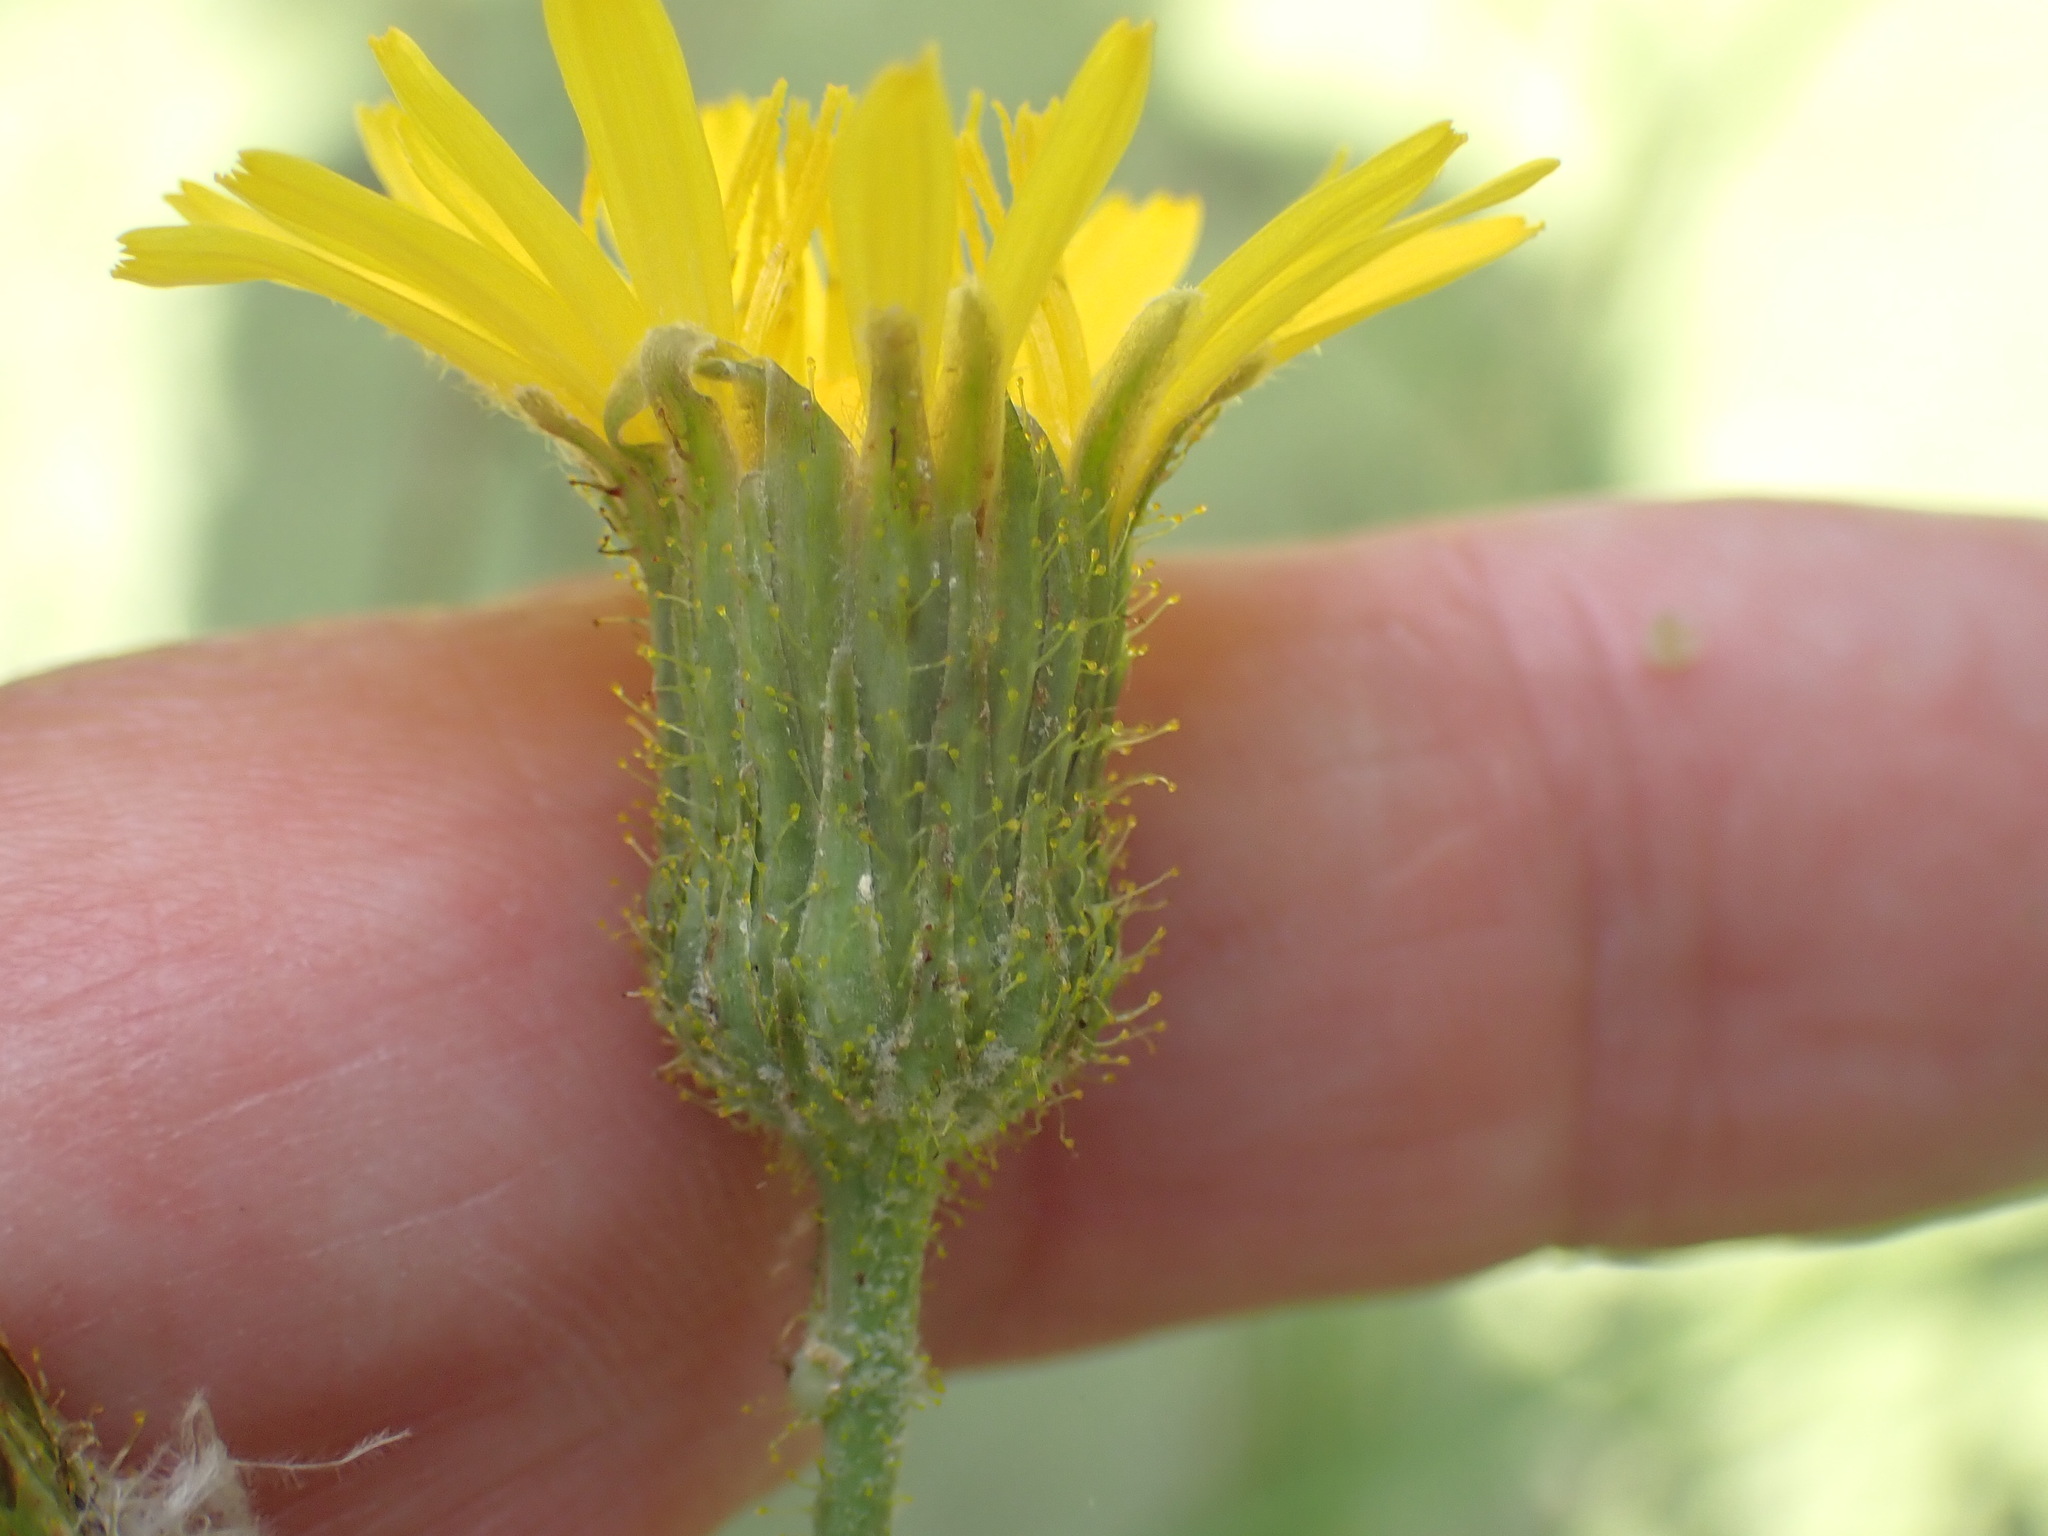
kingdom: Plantae
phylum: Tracheophyta
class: Magnoliopsida
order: Asterales
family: Asteraceae
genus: Sonchus
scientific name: Sonchus arvensis
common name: Perennial sow-thistle
